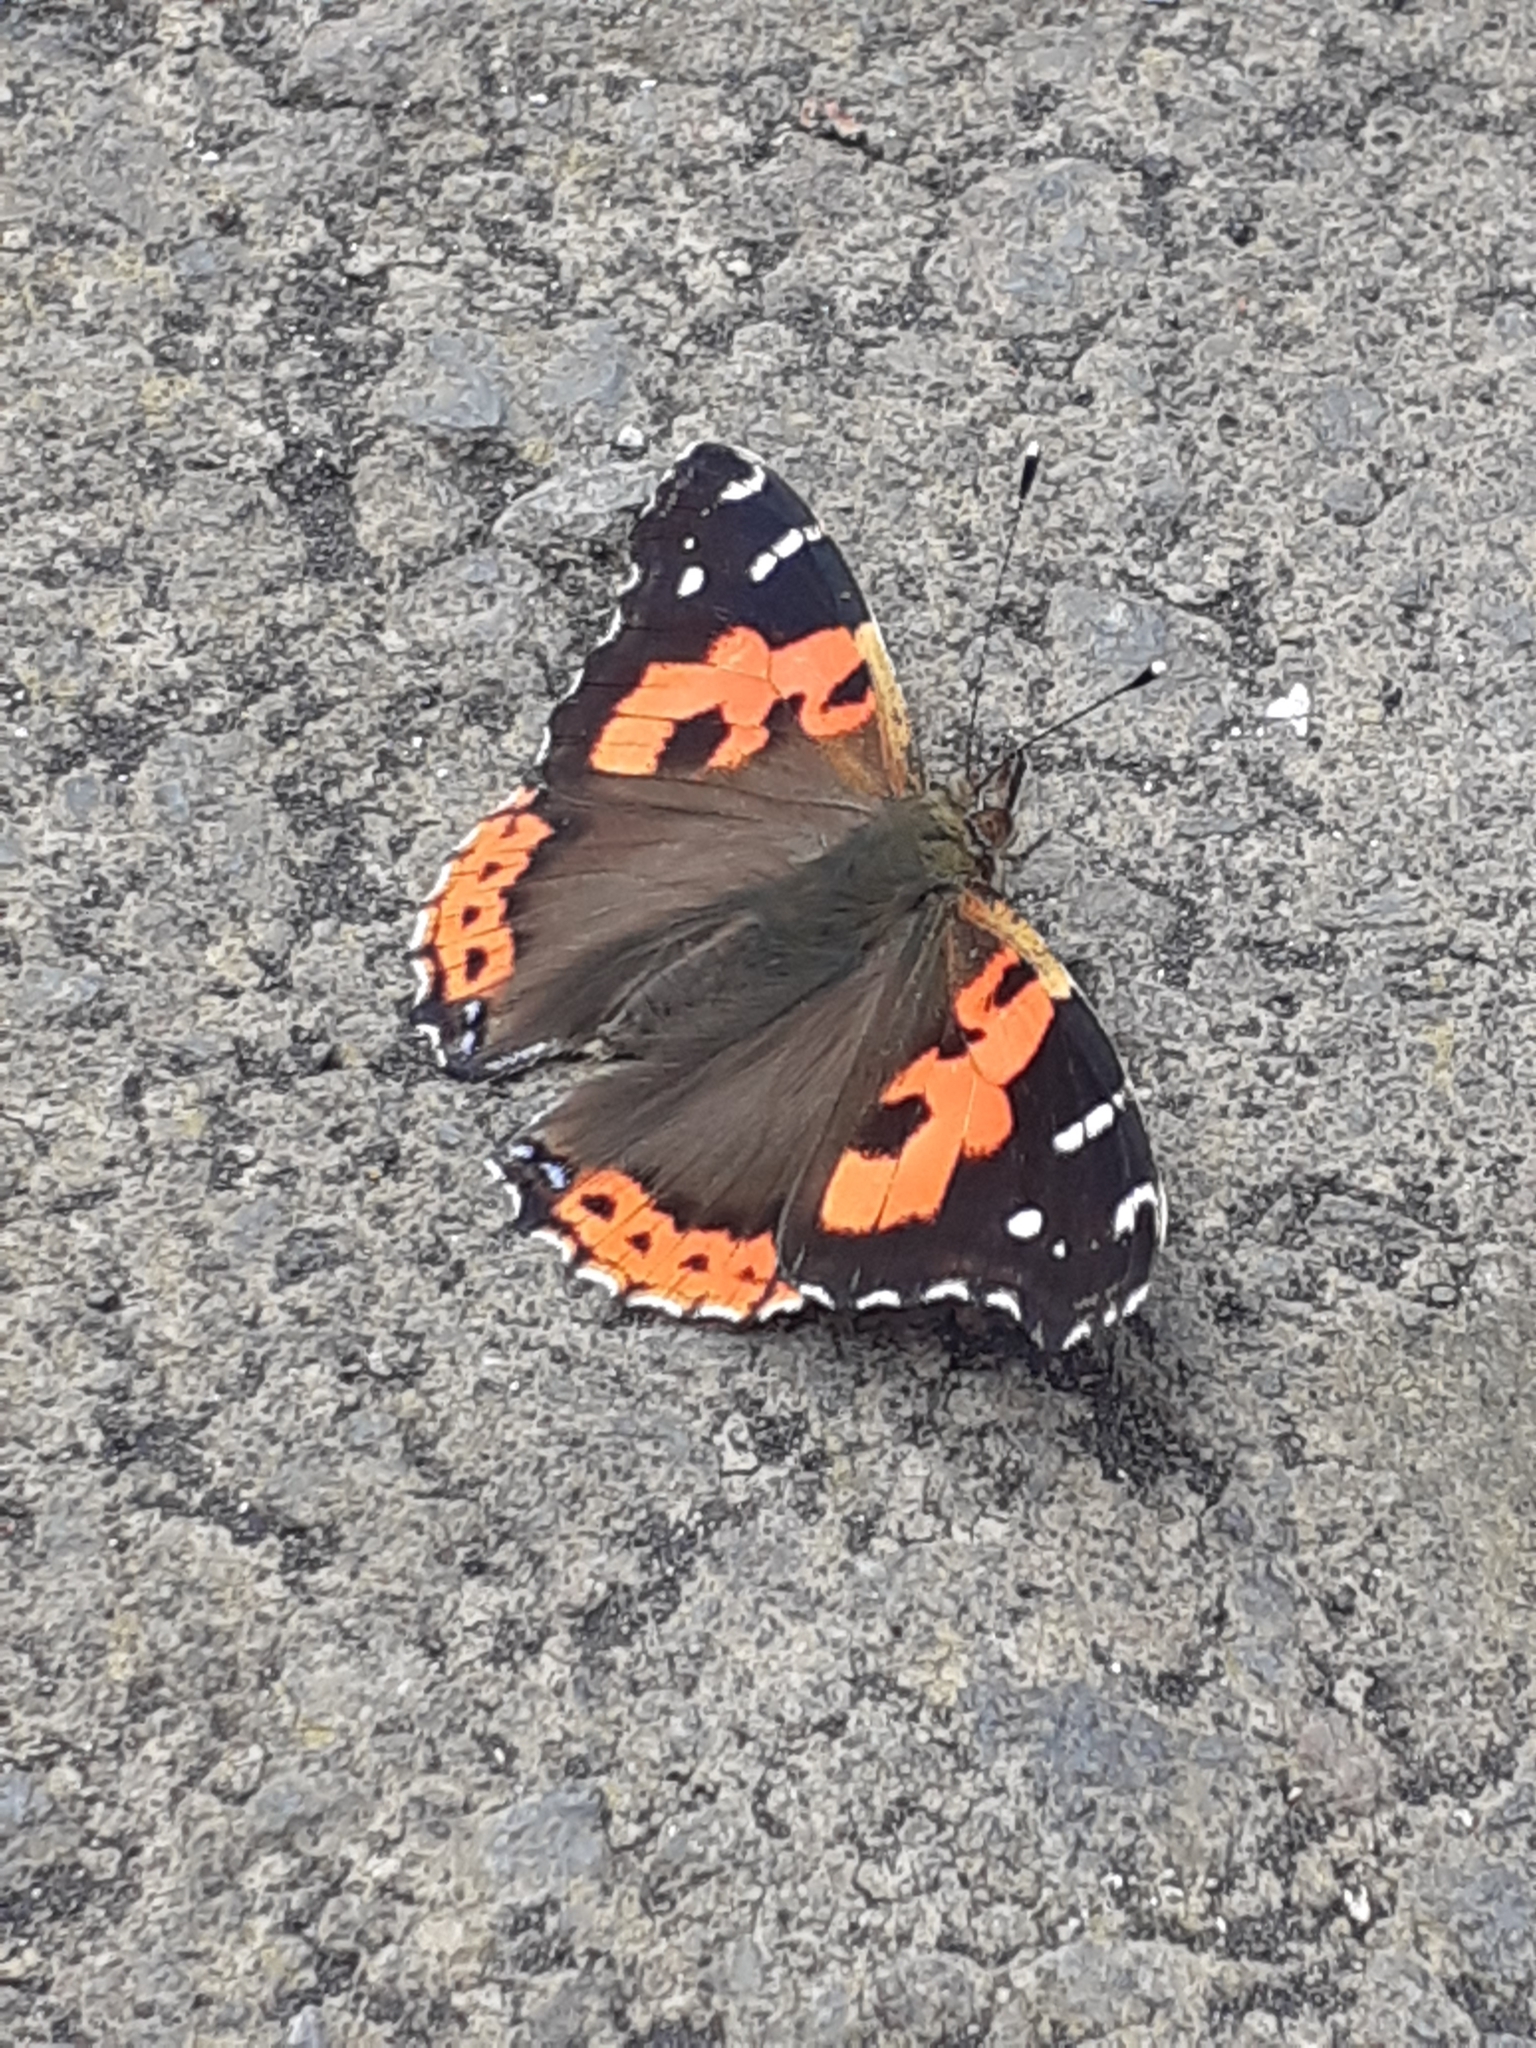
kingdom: Animalia
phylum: Arthropoda
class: Insecta
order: Lepidoptera
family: Nymphalidae
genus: Vanessa
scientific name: Vanessa vulcania
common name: Canary red admiral
